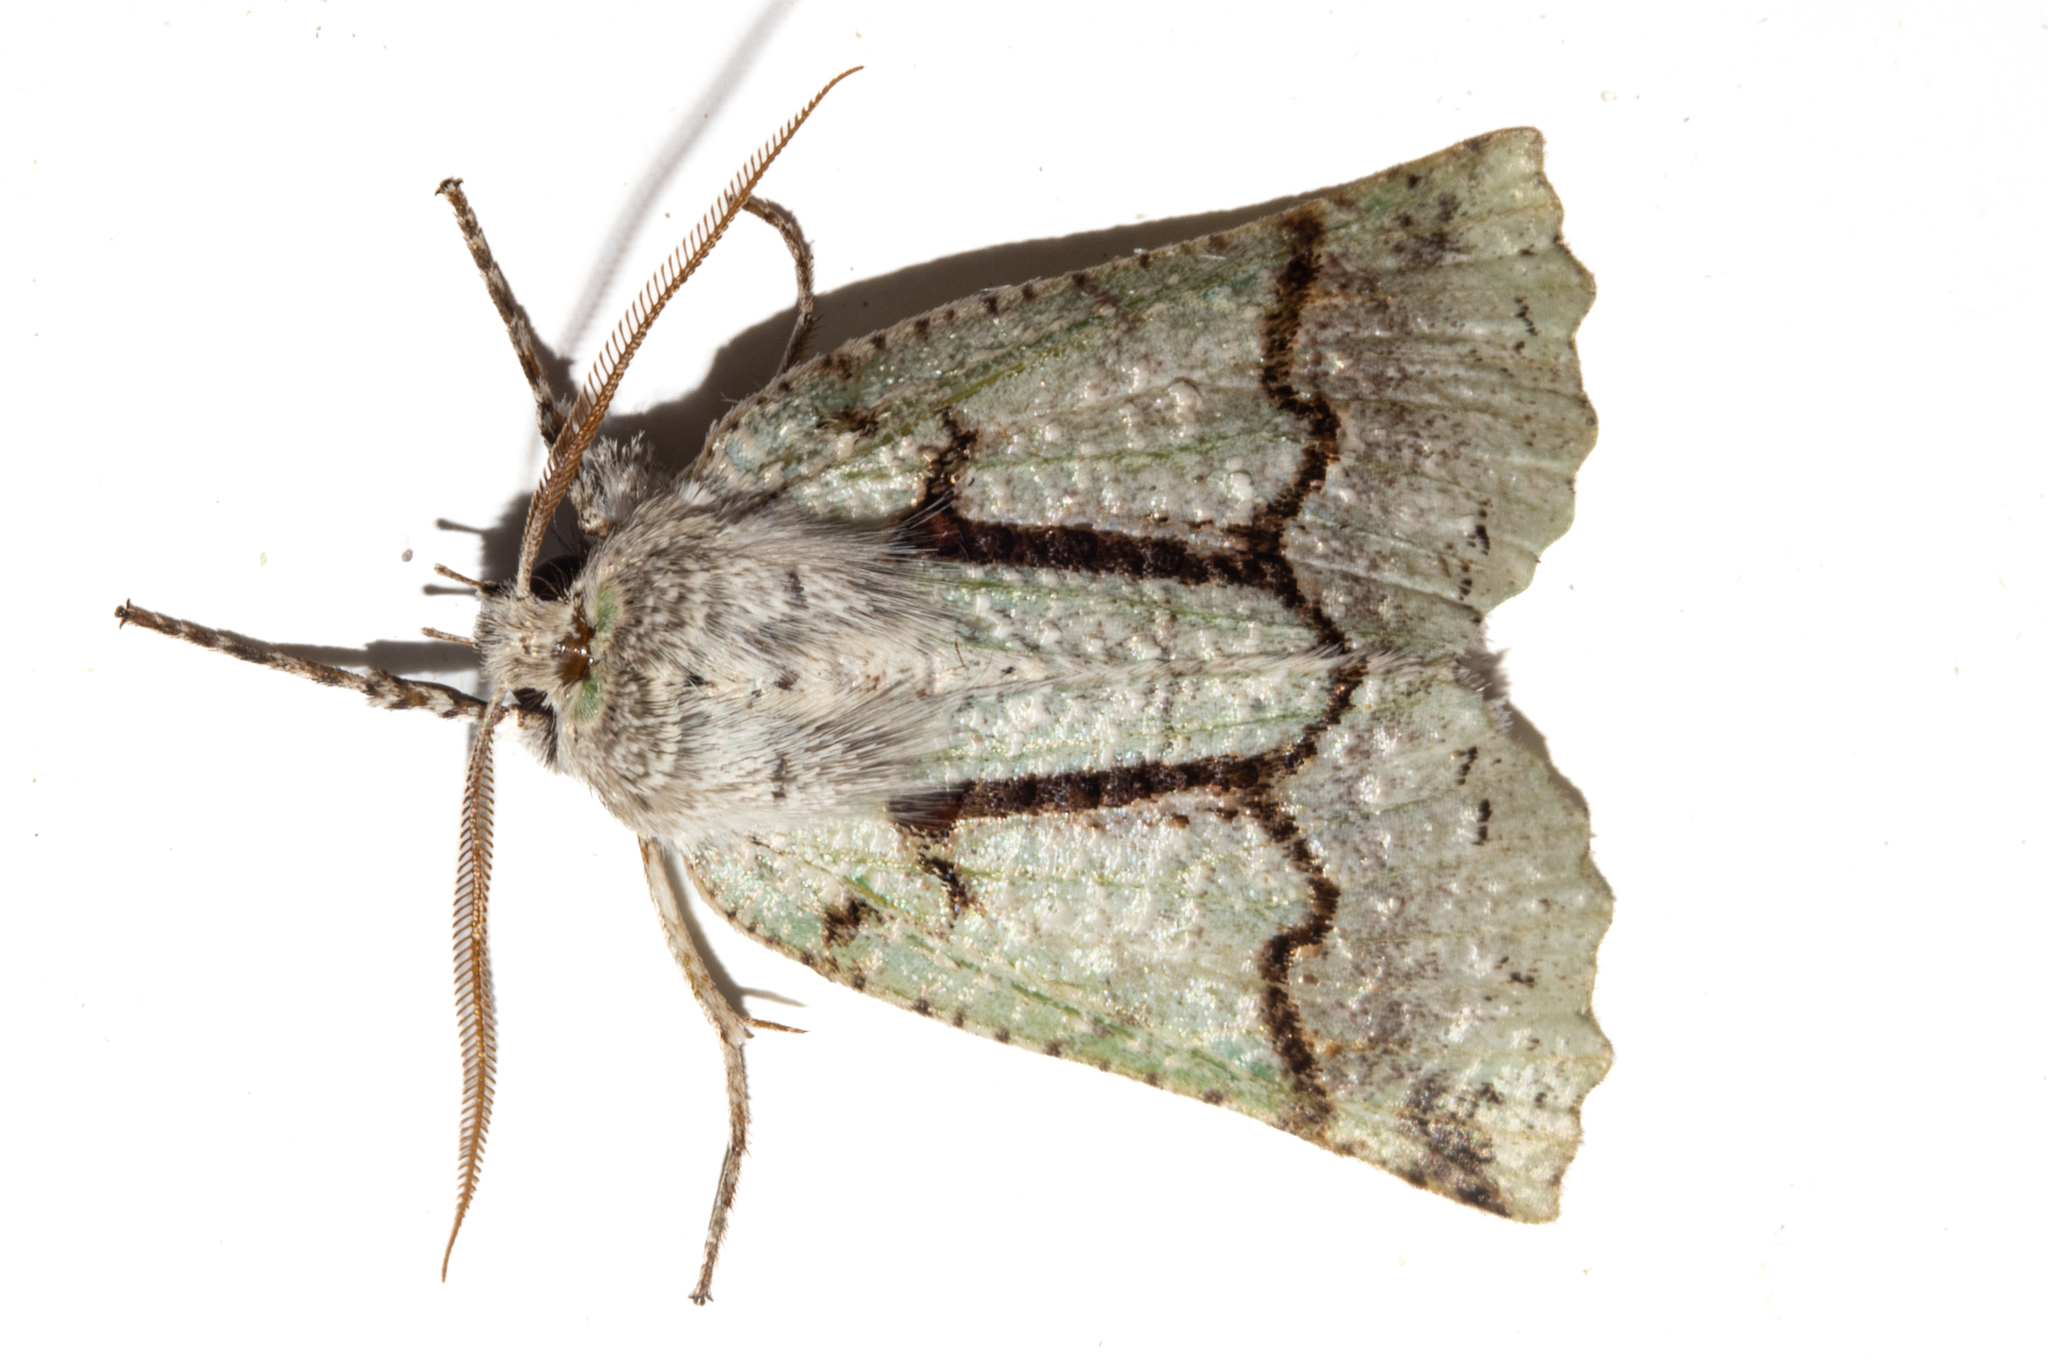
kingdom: Animalia
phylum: Arthropoda
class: Insecta
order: Lepidoptera
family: Geometridae
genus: Declana
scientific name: Declana floccosa
